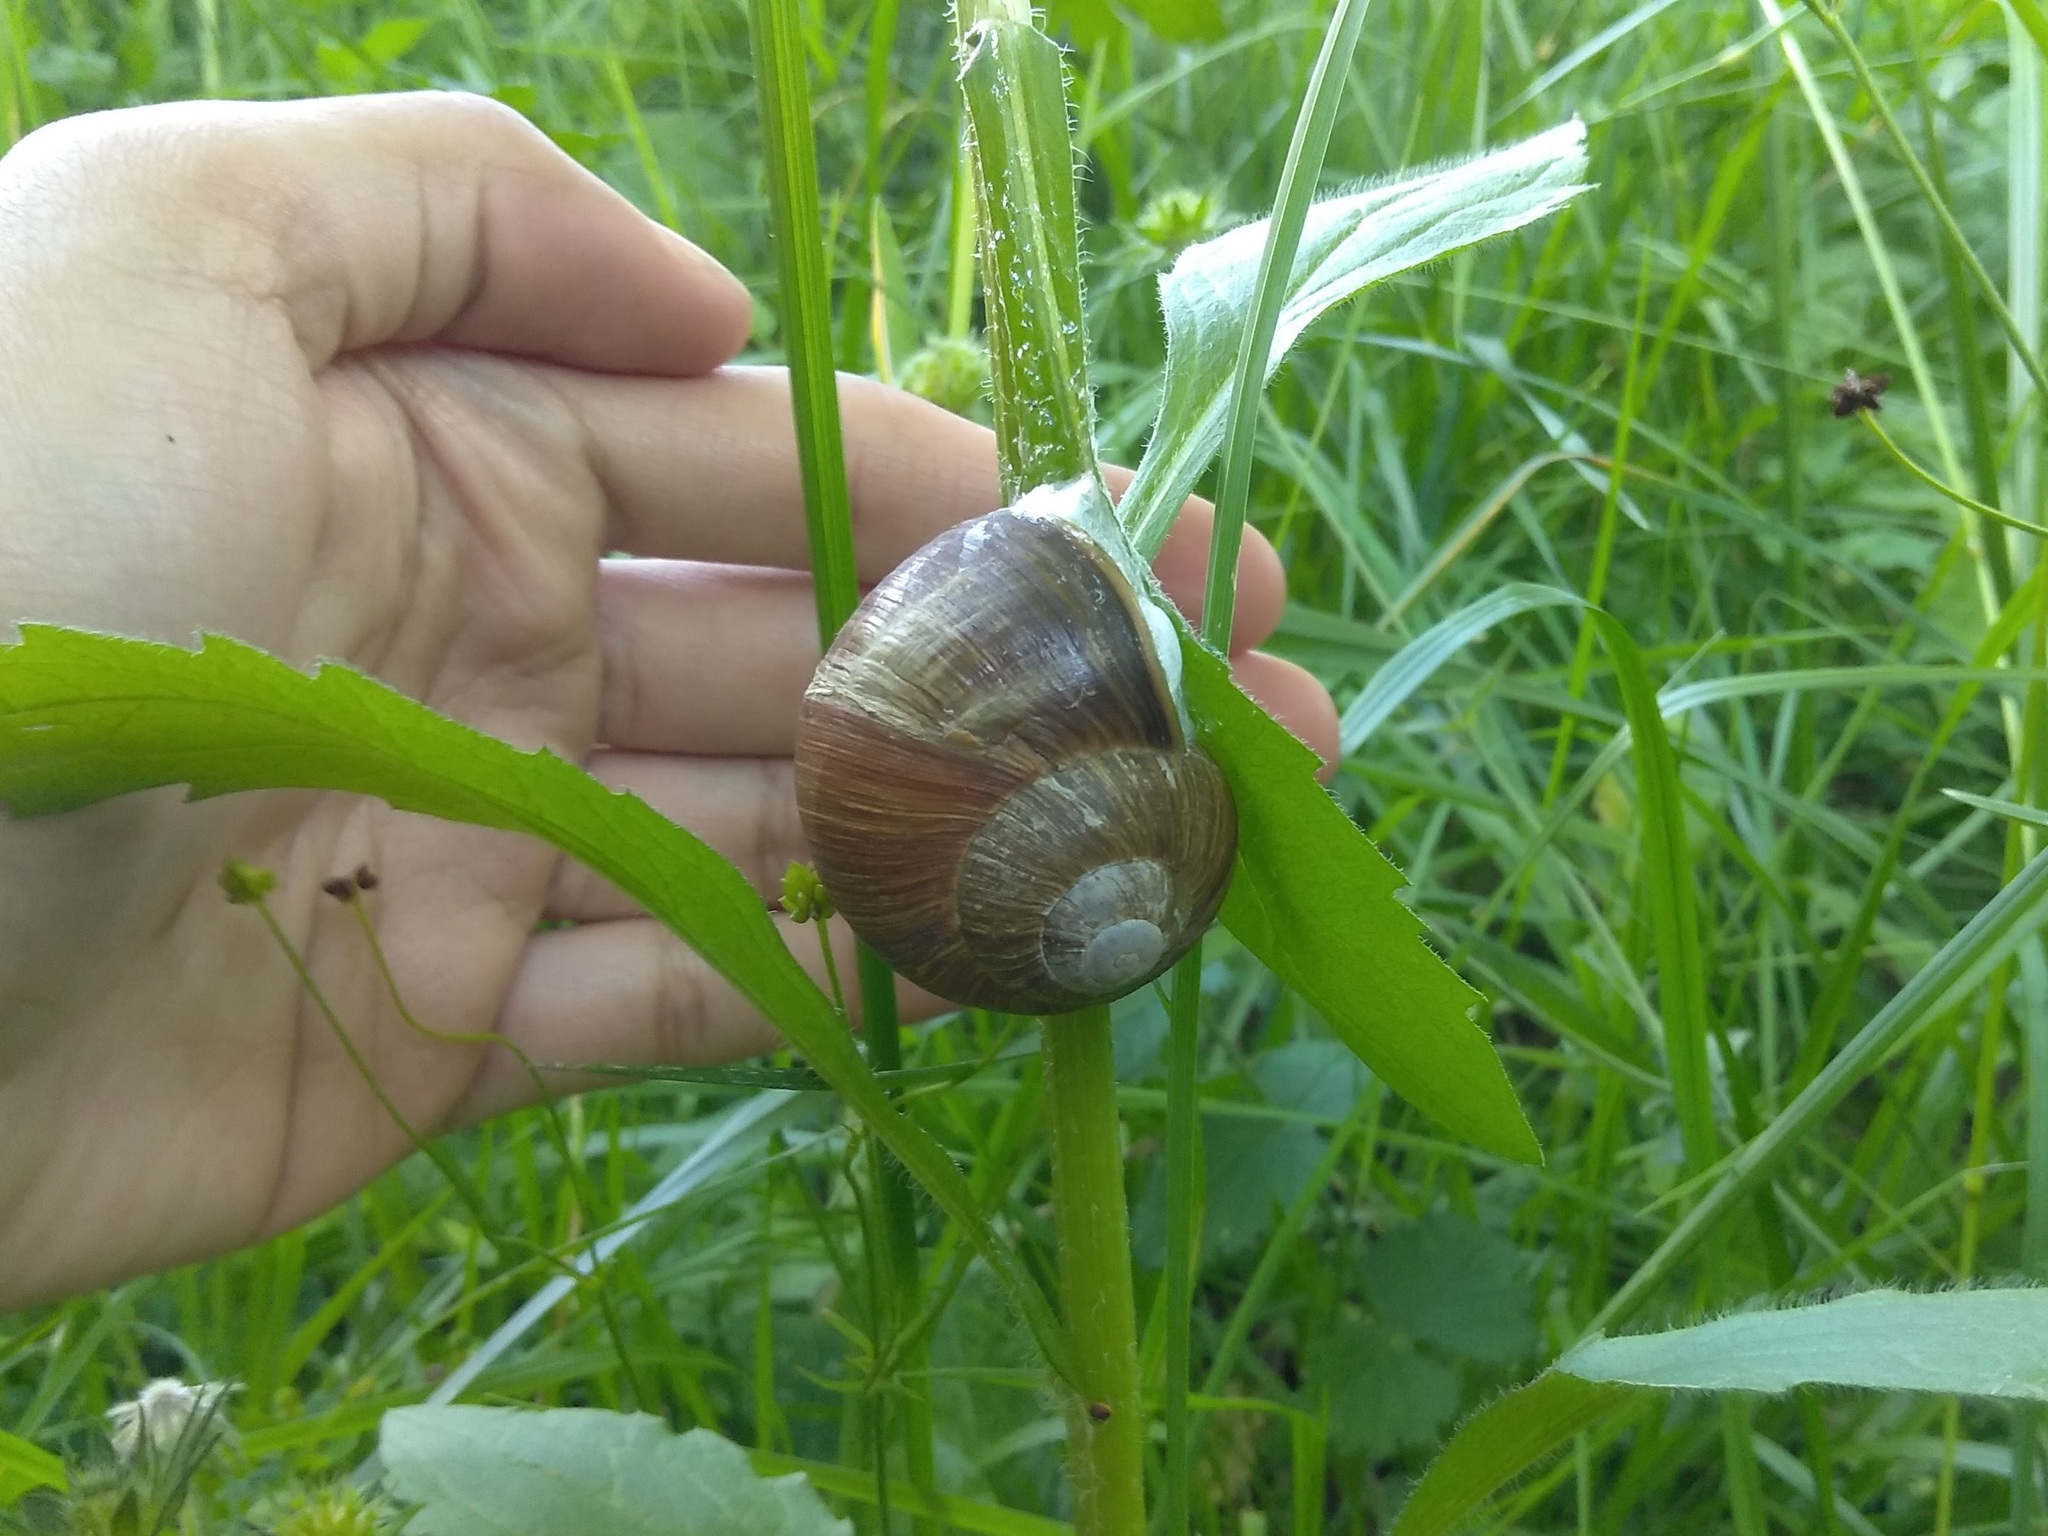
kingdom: Animalia
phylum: Mollusca
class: Gastropoda
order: Stylommatophora
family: Helicidae
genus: Helix
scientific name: Helix pomatia
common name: Roman snail
